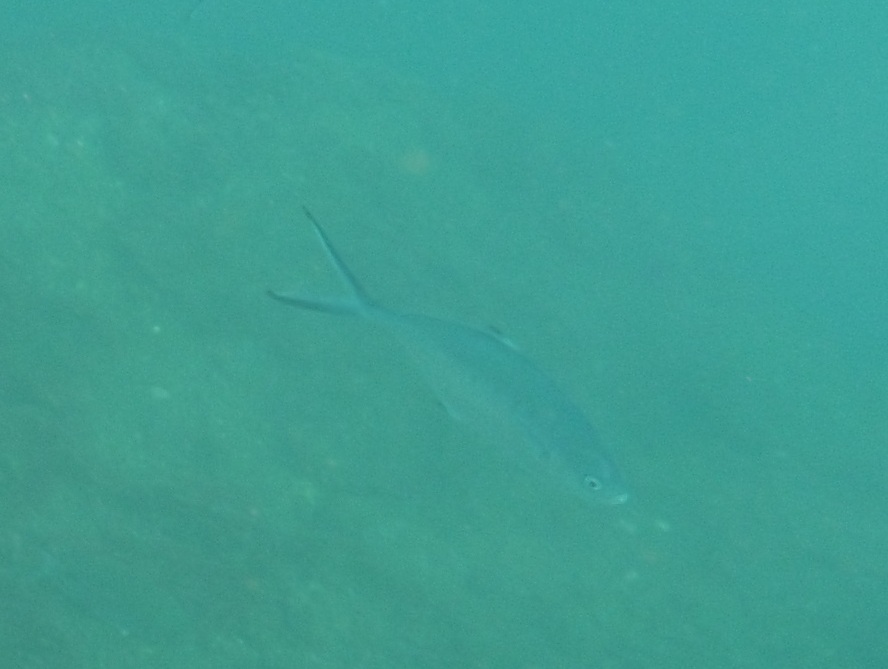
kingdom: Animalia
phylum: Chordata
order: Perciformes
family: Carangidae
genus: Trachinotus
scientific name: Trachinotus ovatus
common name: Pompano
